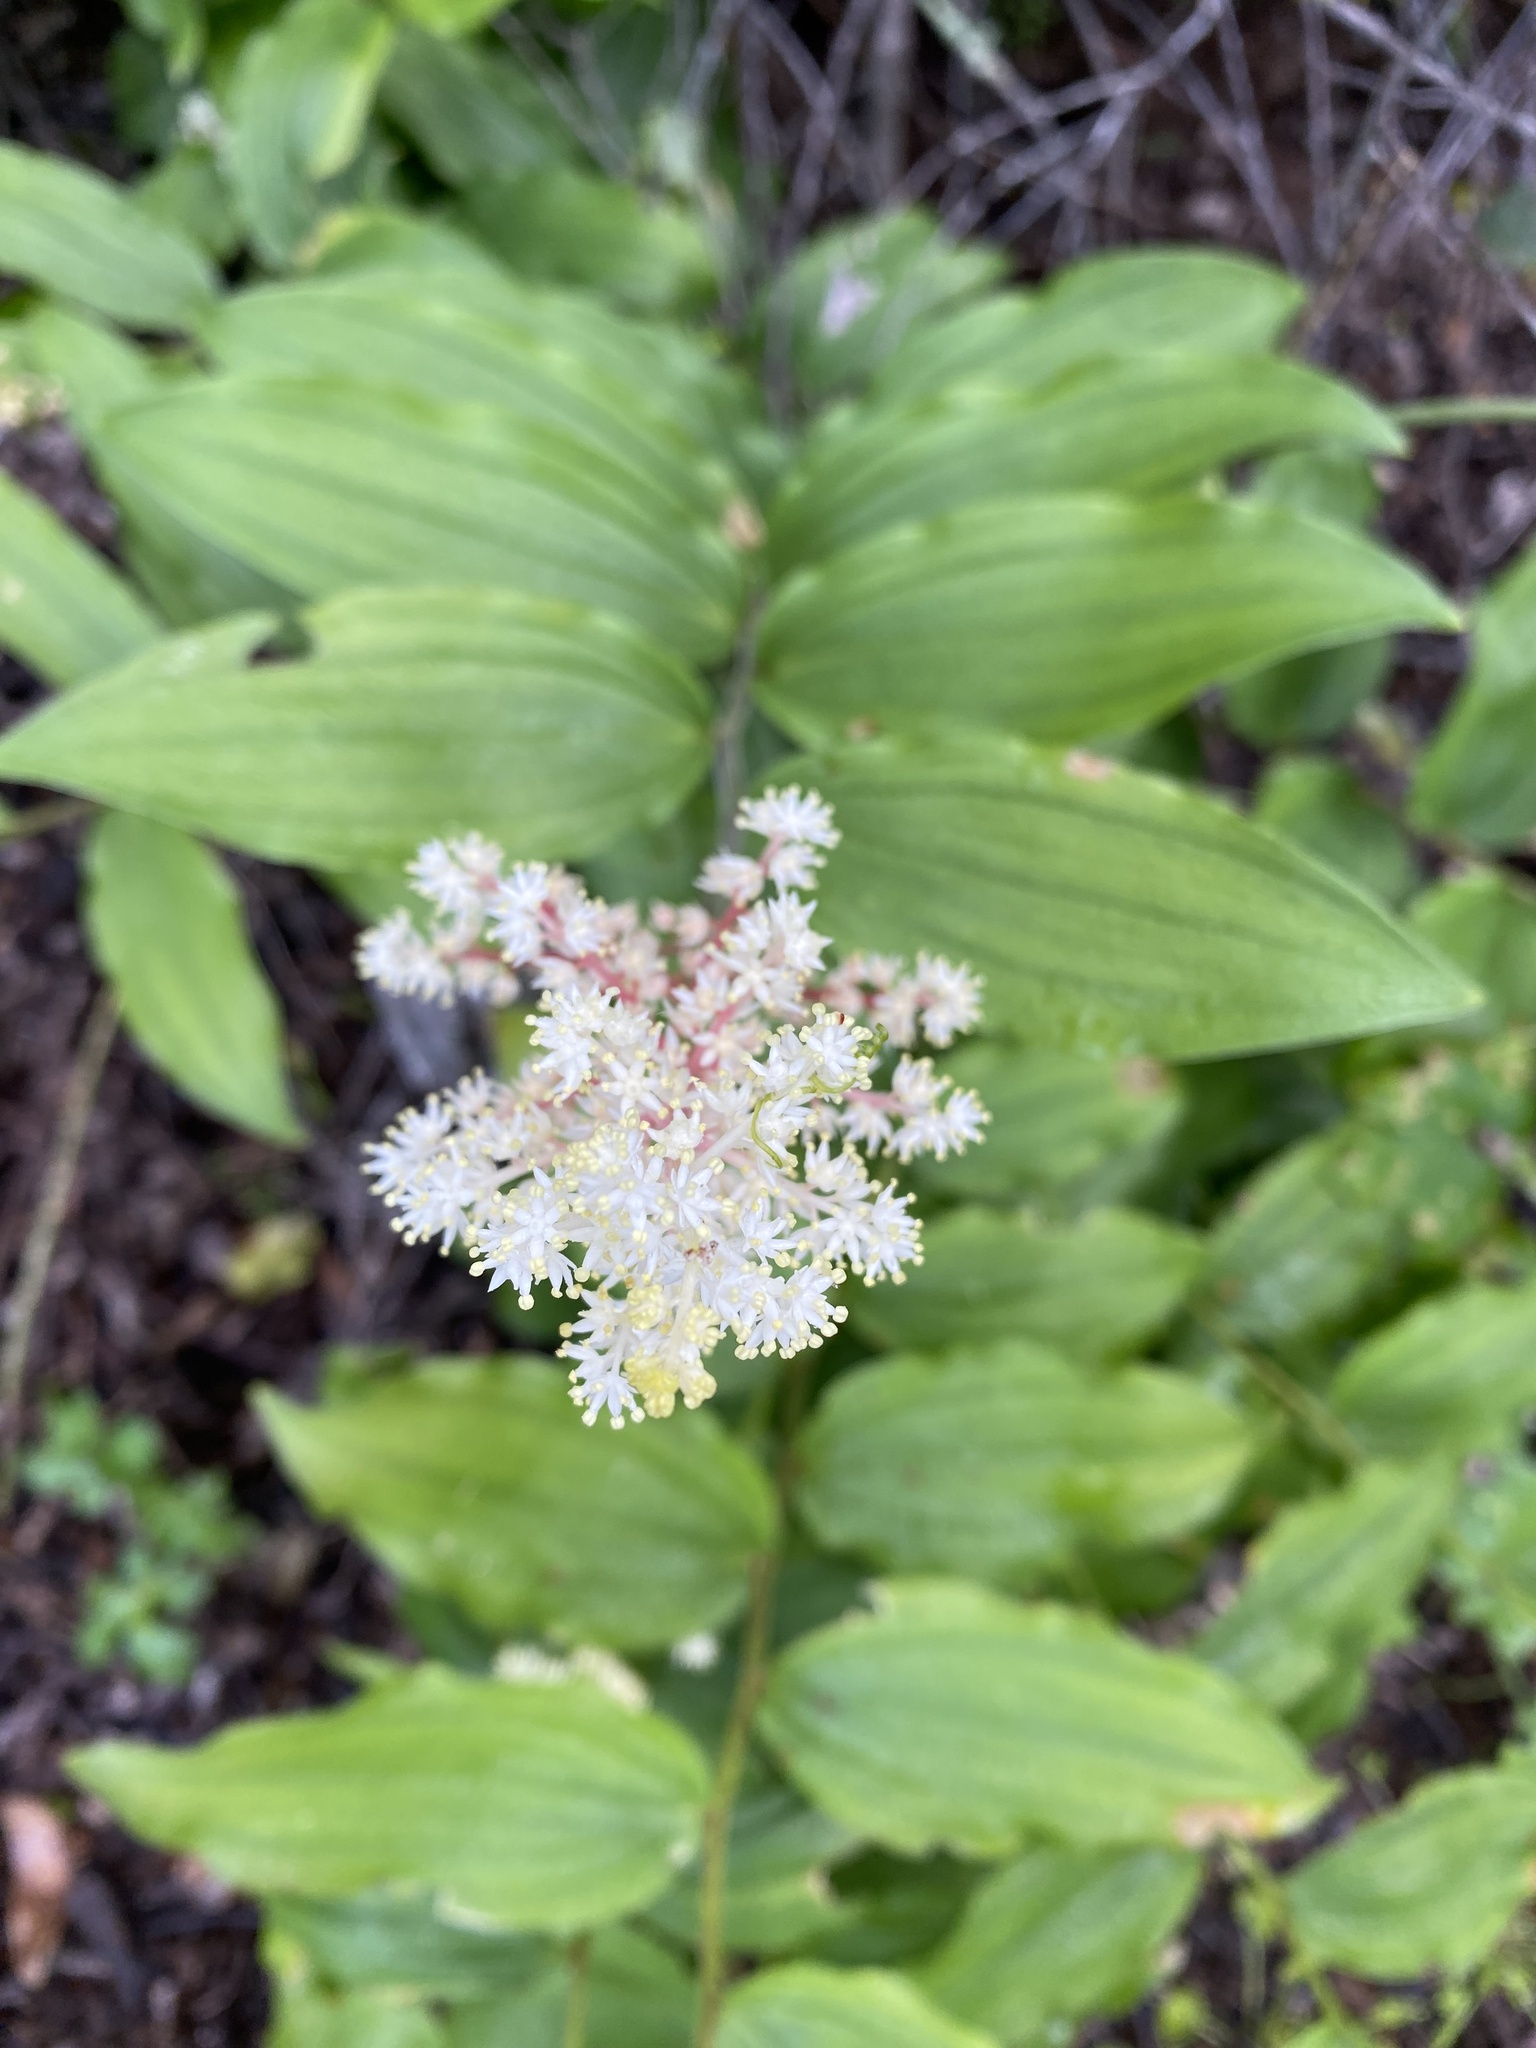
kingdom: Plantae
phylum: Tracheophyta
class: Liliopsida
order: Asparagales
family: Asparagaceae
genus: Maianthemum
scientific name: Maianthemum racemosum
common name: False spikenard
